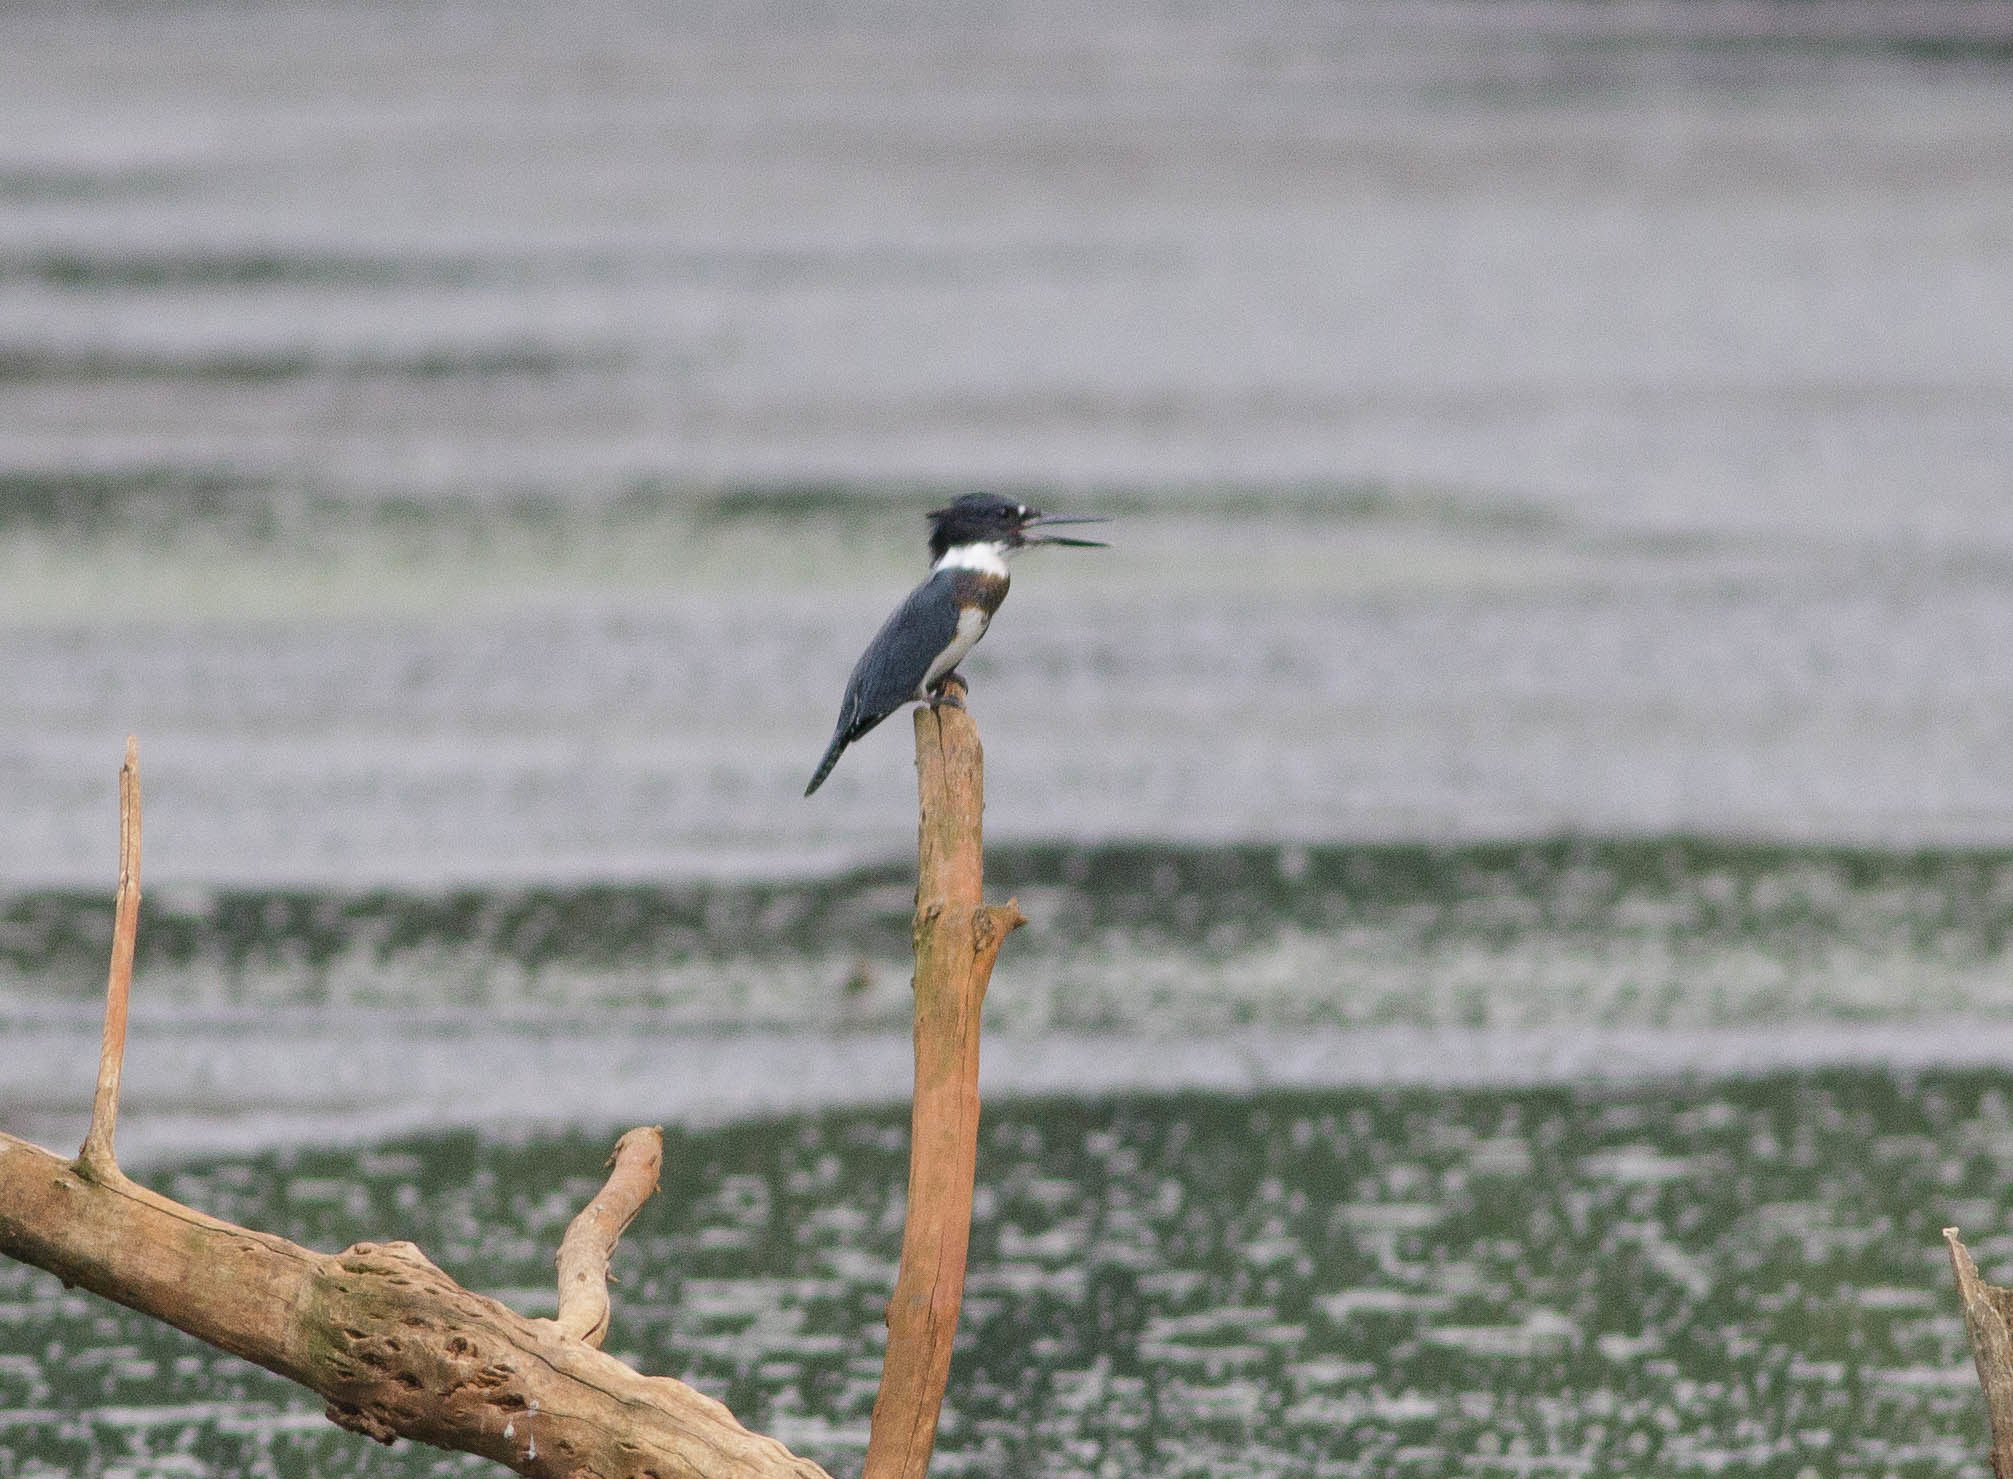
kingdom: Animalia
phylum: Chordata
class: Aves
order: Coraciiformes
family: Alcedinidae
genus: Megaceryle
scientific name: Megaceryle alcyon
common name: Belted kingfisher
